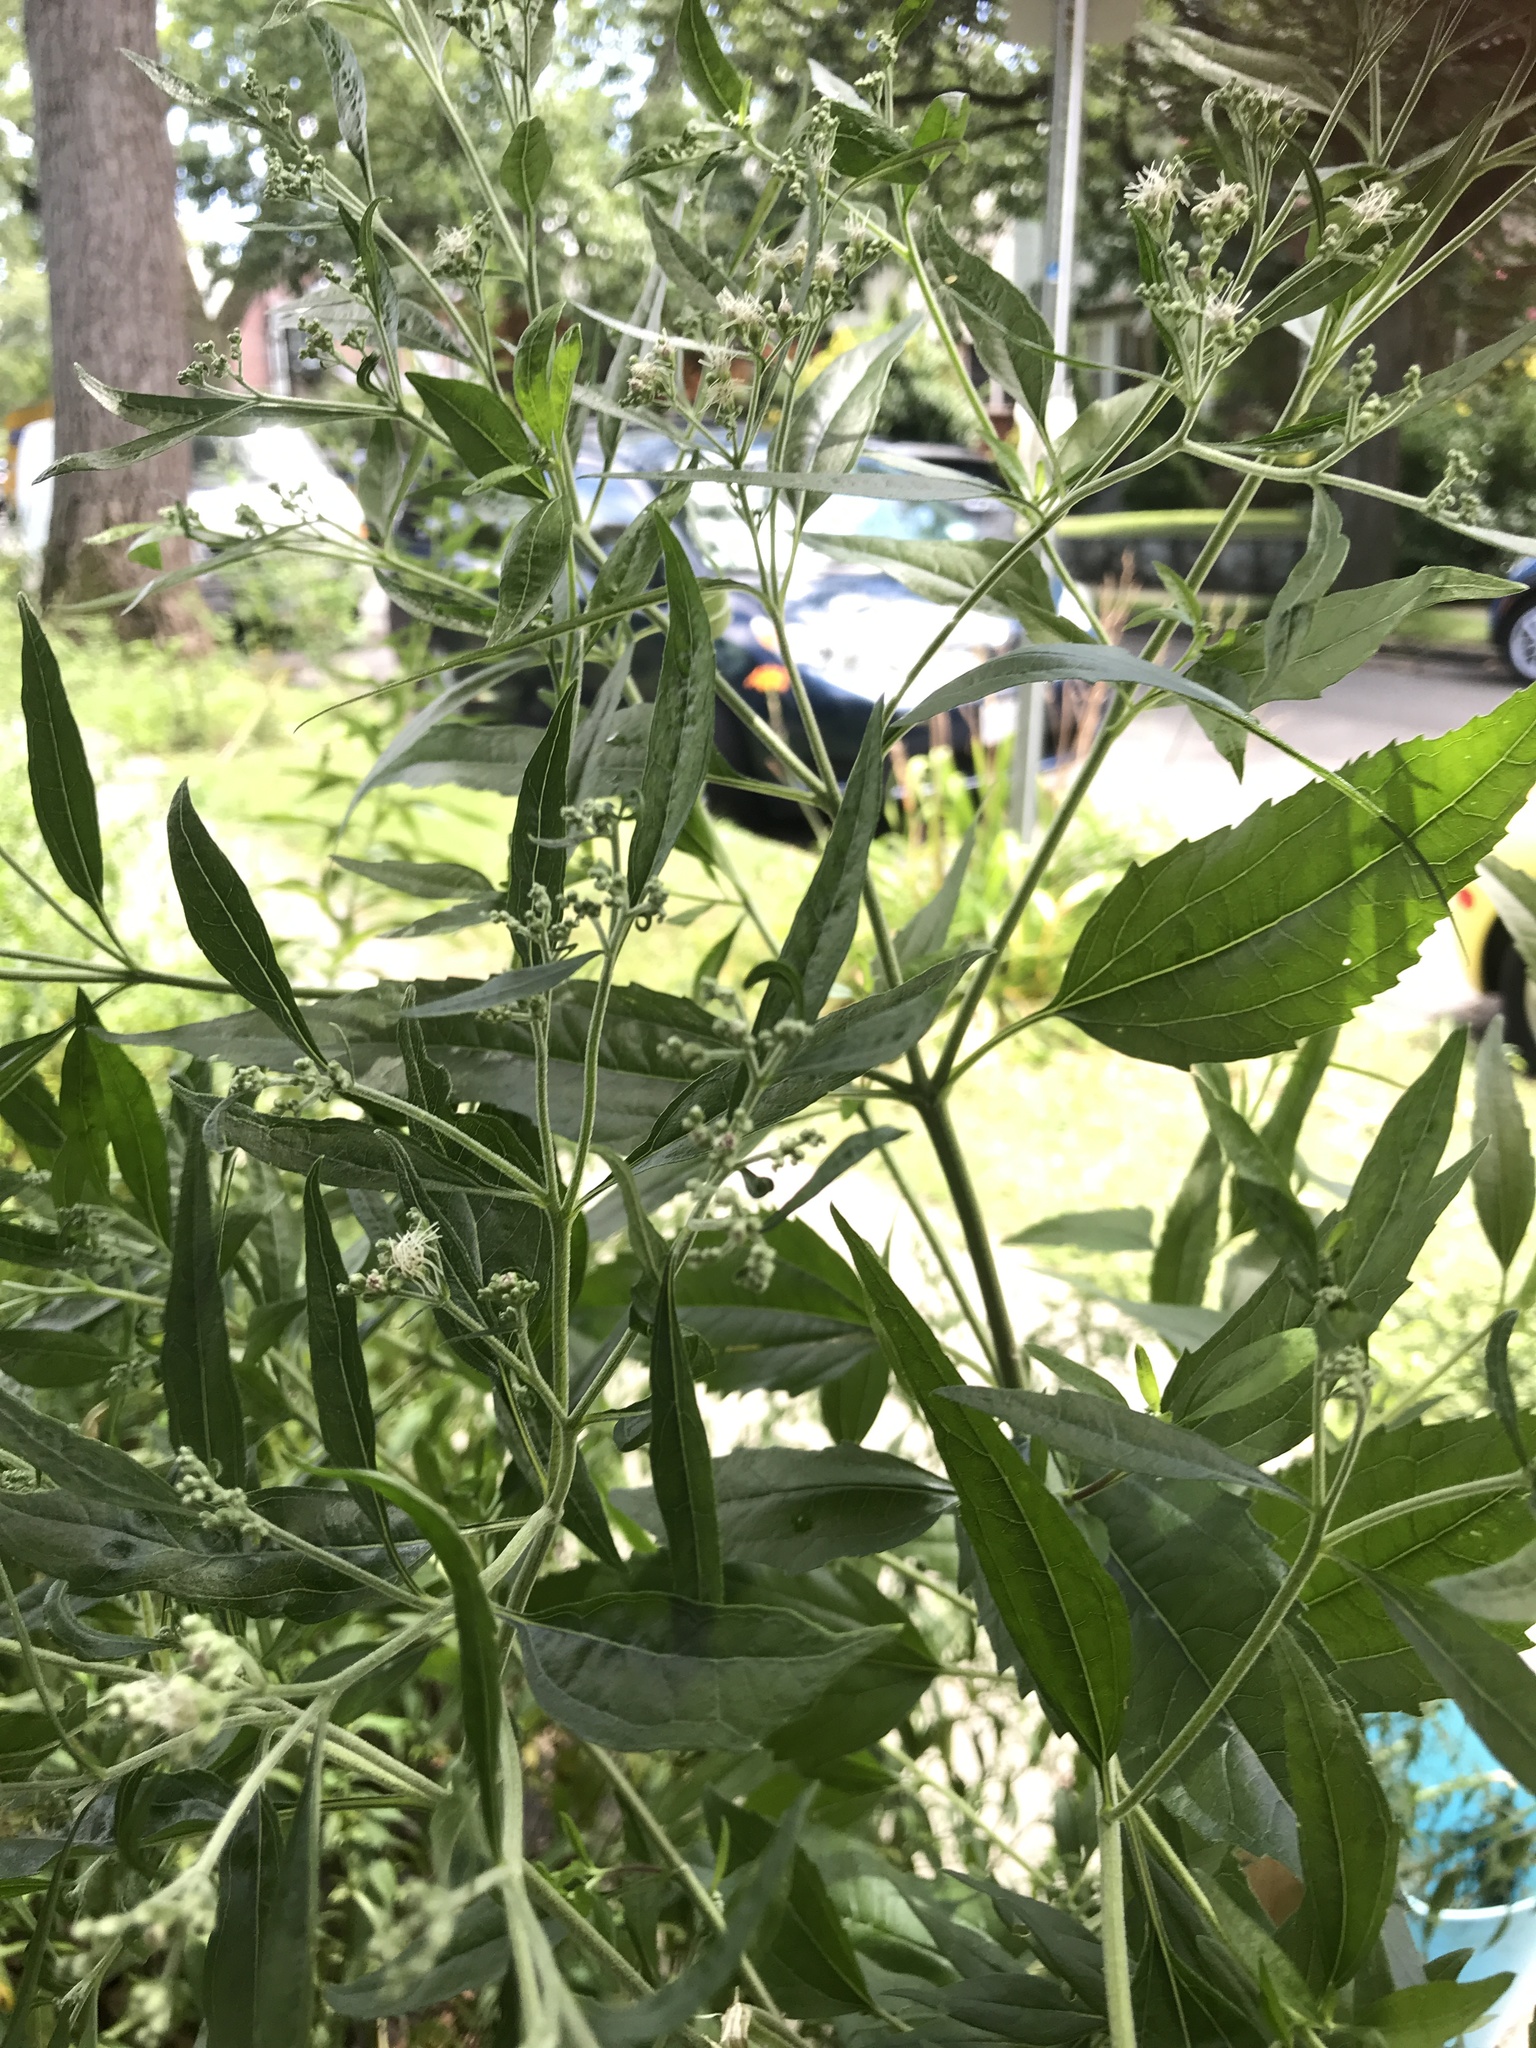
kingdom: Plantae
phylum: Tracheophyta
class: Magnoliopsida
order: Asterales
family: Asteraceae
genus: Eupatorium
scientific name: Eupatorium serotinum
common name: Late boneset
